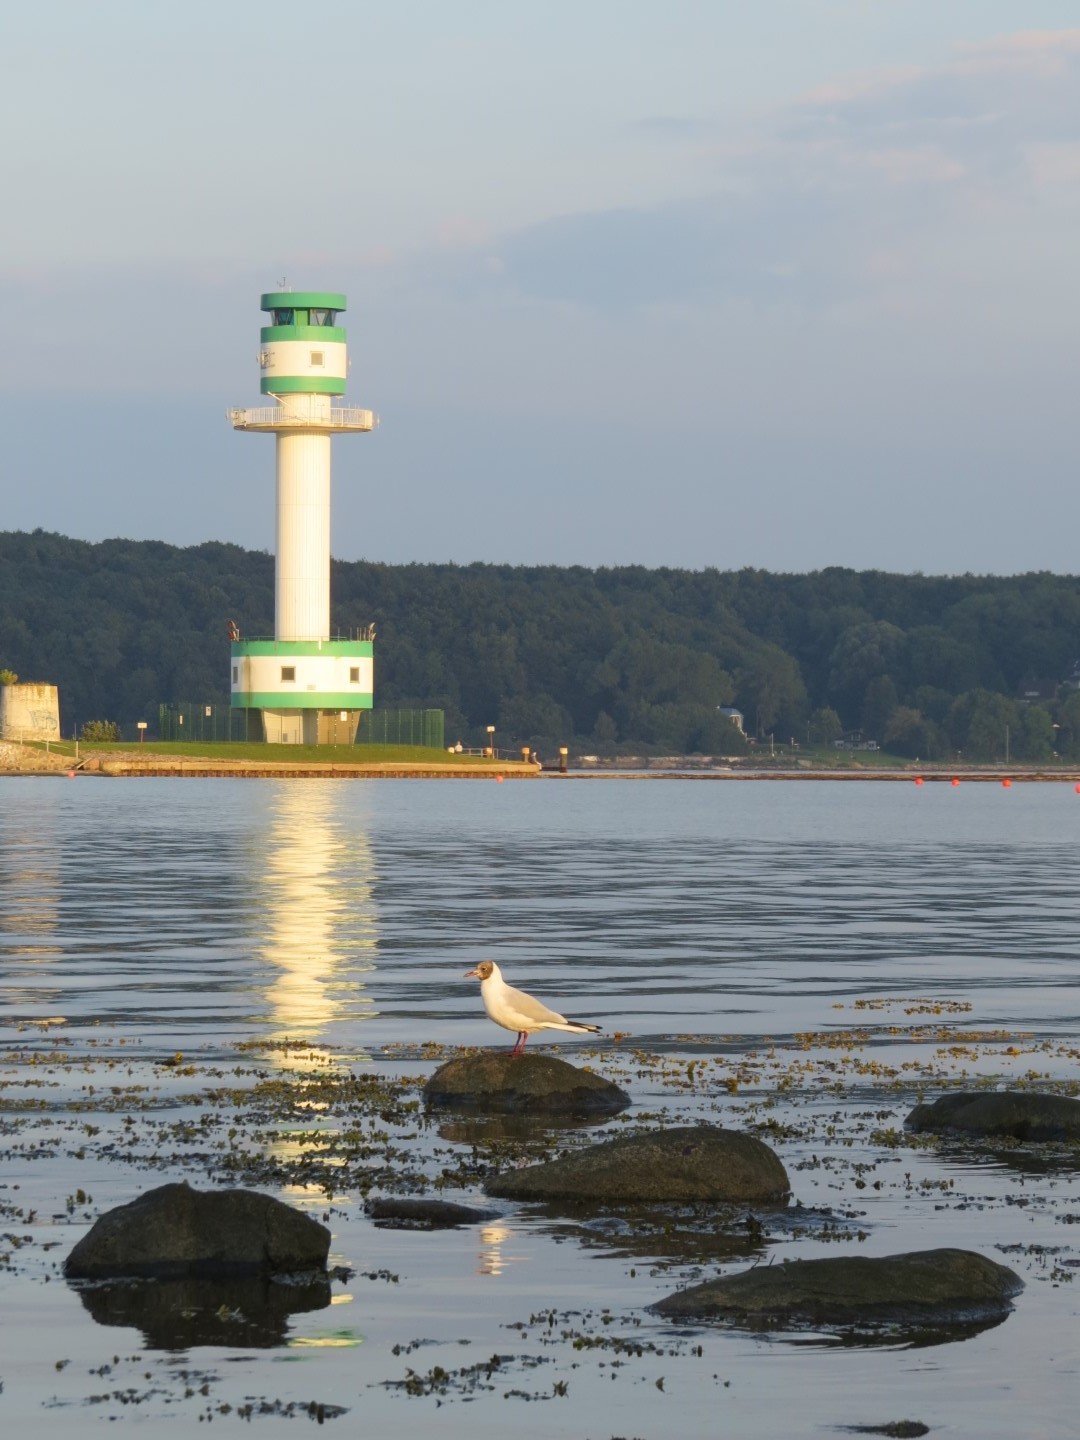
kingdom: Animalia
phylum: Chordata
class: Aves
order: Charadriiformes
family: Laridae
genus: Chroicocephalus
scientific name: Chroicocephalus ridibundus
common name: Black-headed gull
